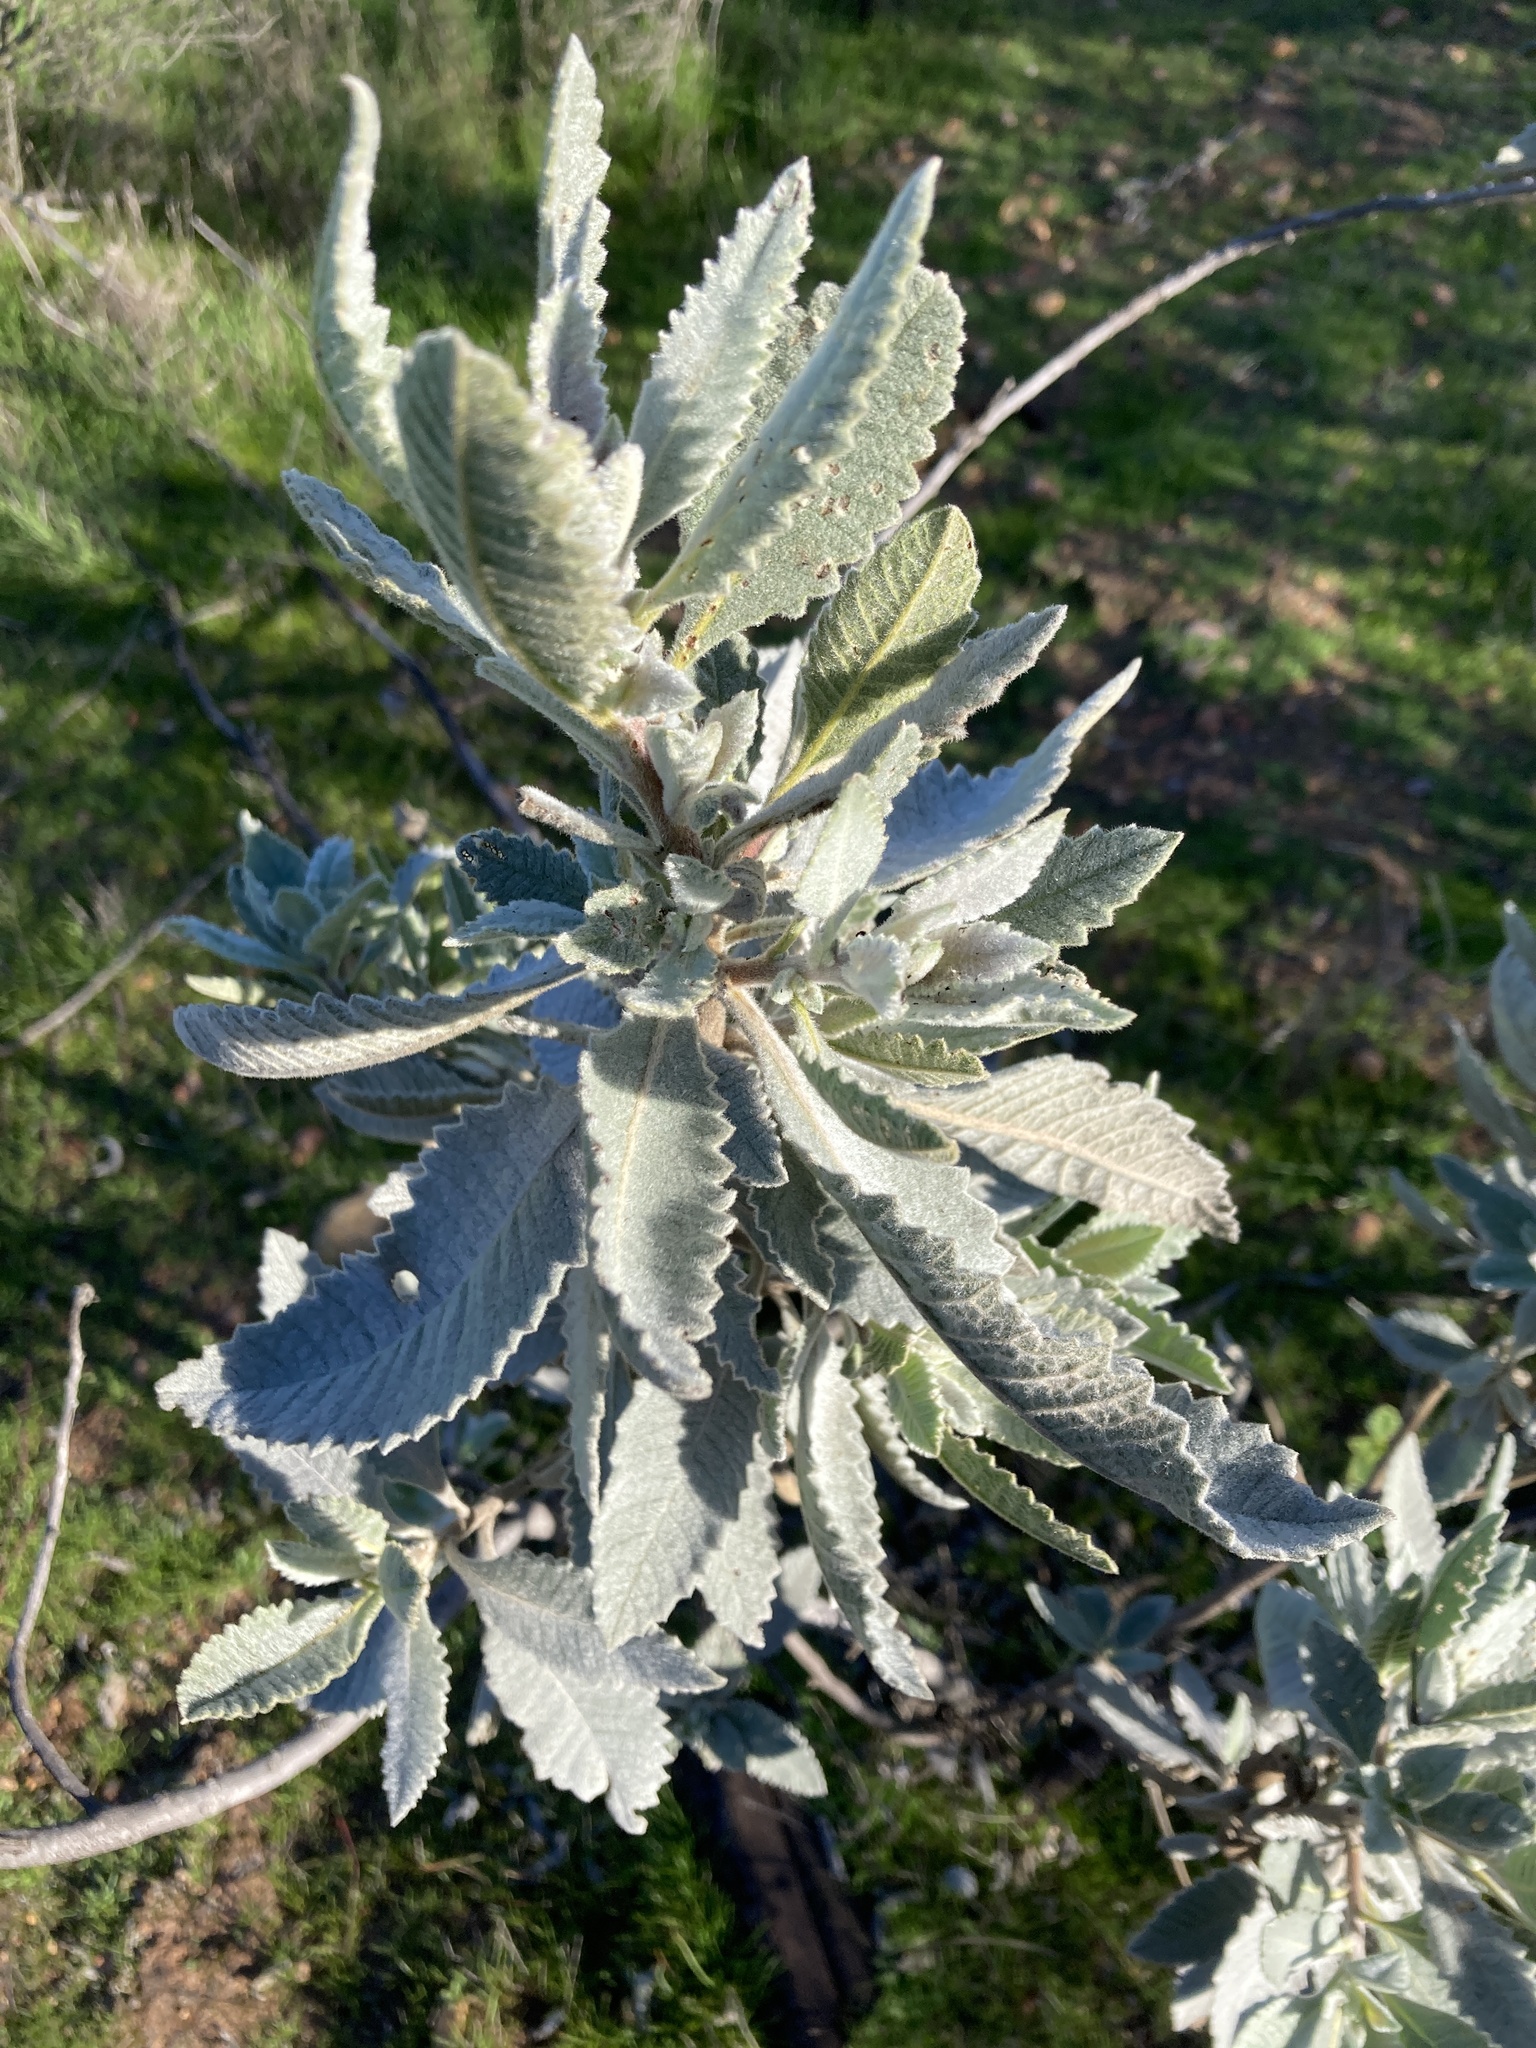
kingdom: Plantae
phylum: Tracheophyta
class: Magnoliopsida
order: Boraginales
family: Namaceae
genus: Eriodictyon
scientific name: Eriodictyon crassifolium
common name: Thick-leaf yerba-santa
